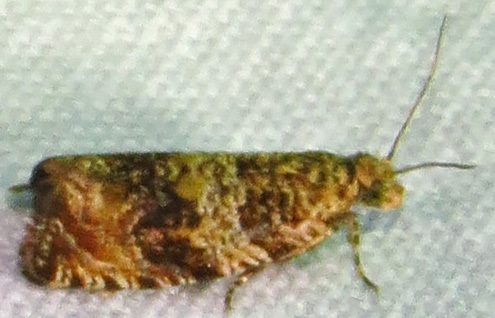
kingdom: Animalia
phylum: Arthropoda
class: Insecta
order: Lepidoptera
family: Tortricidae
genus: Celypha
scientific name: Celypha cespitana
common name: Thyme marble
